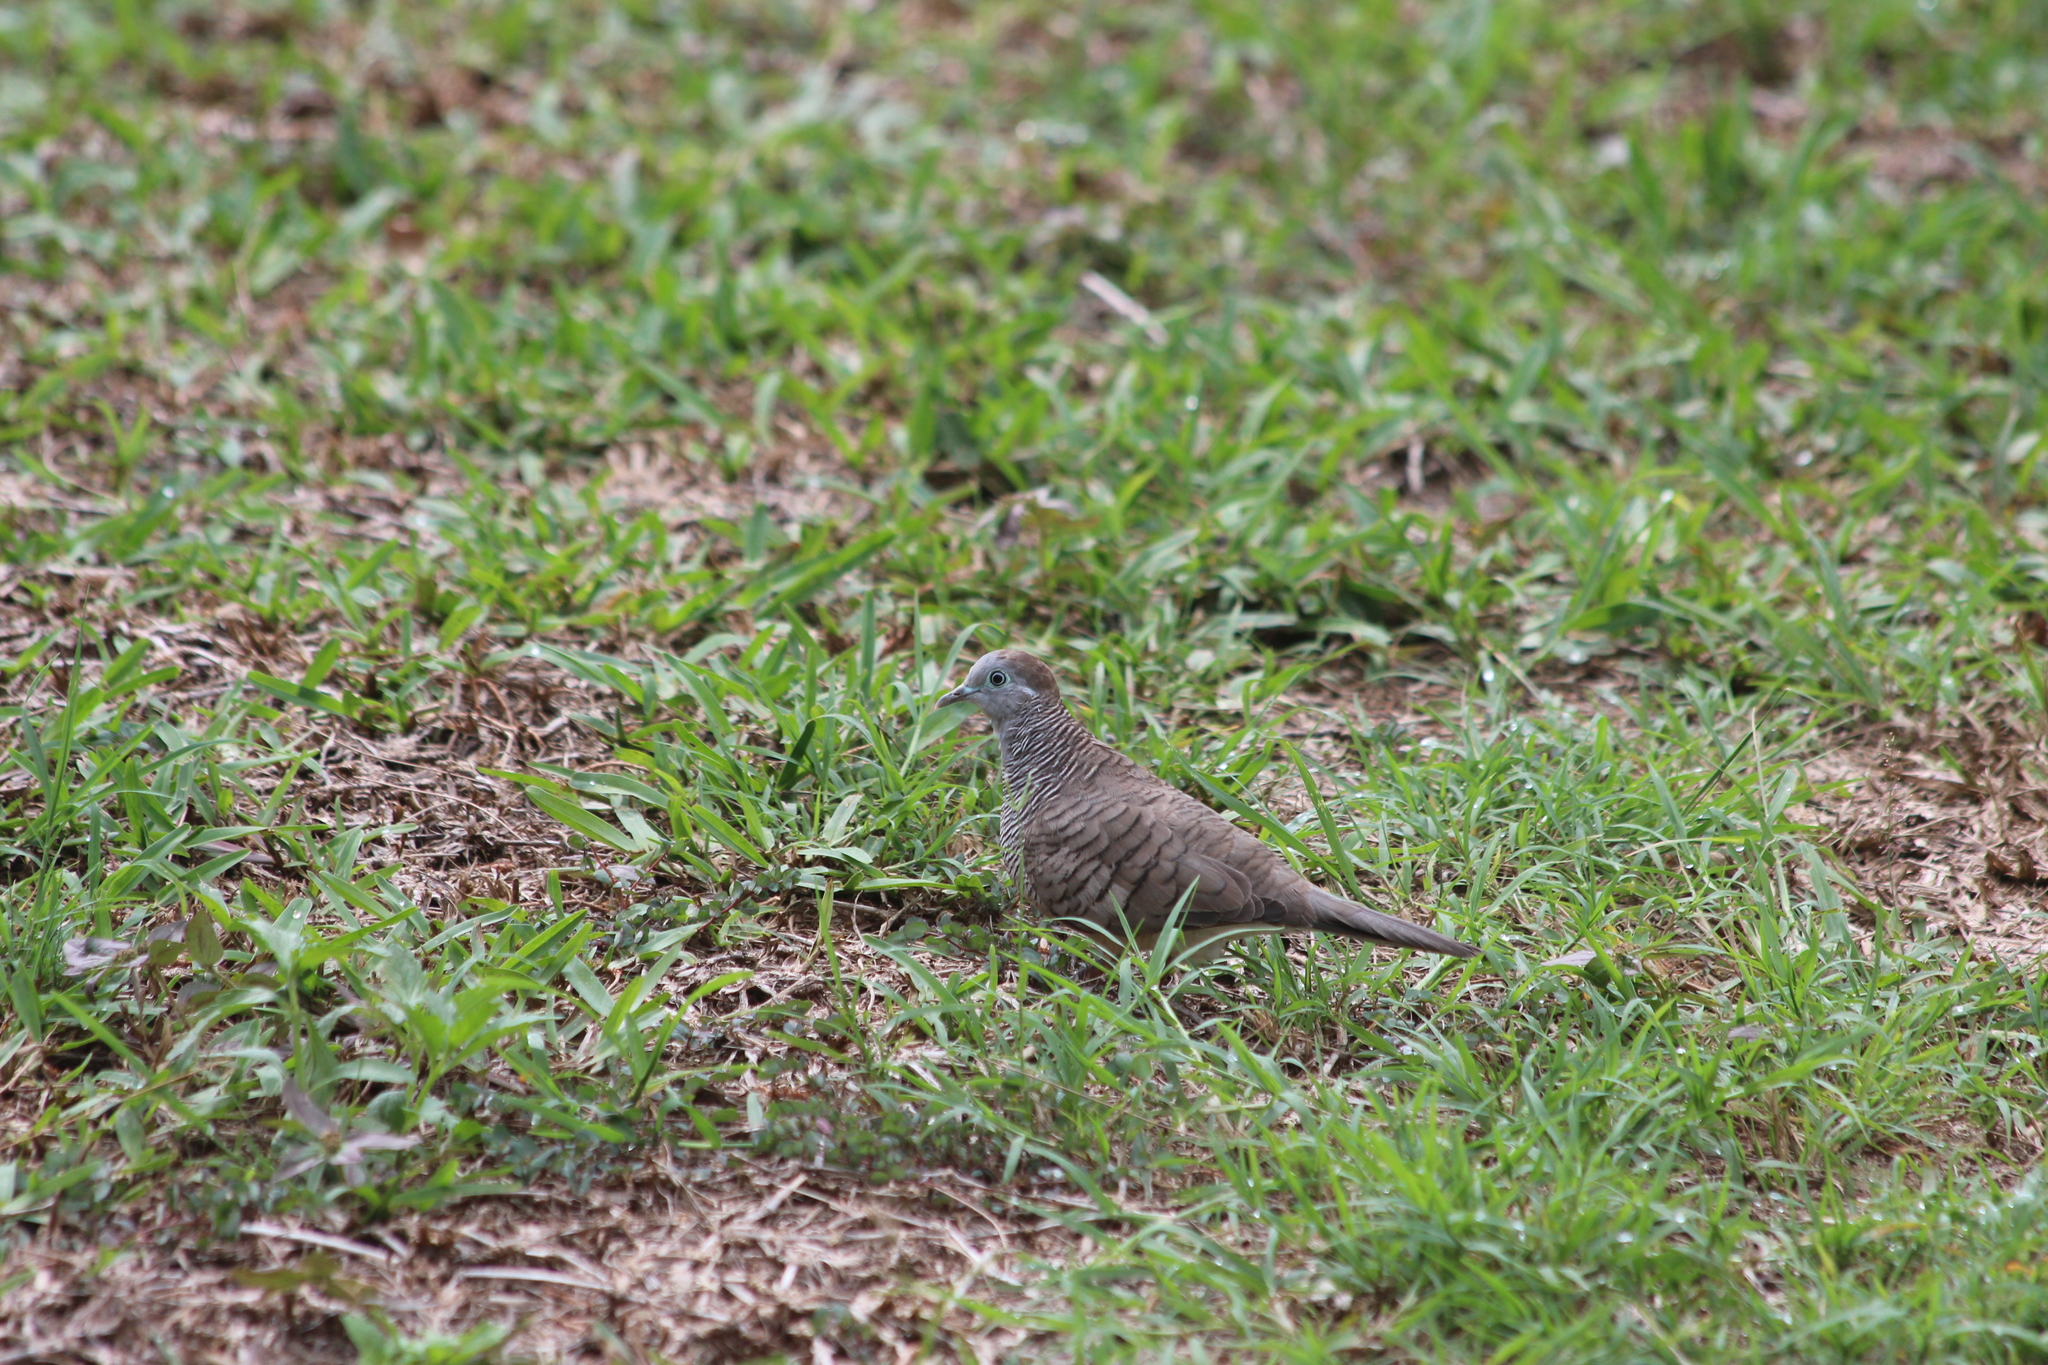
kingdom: Animalia
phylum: Chordata
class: Aves
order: Columbiformes
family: Columbidae
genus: Geopelia
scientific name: Geopelia striata
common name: Zebra dove
